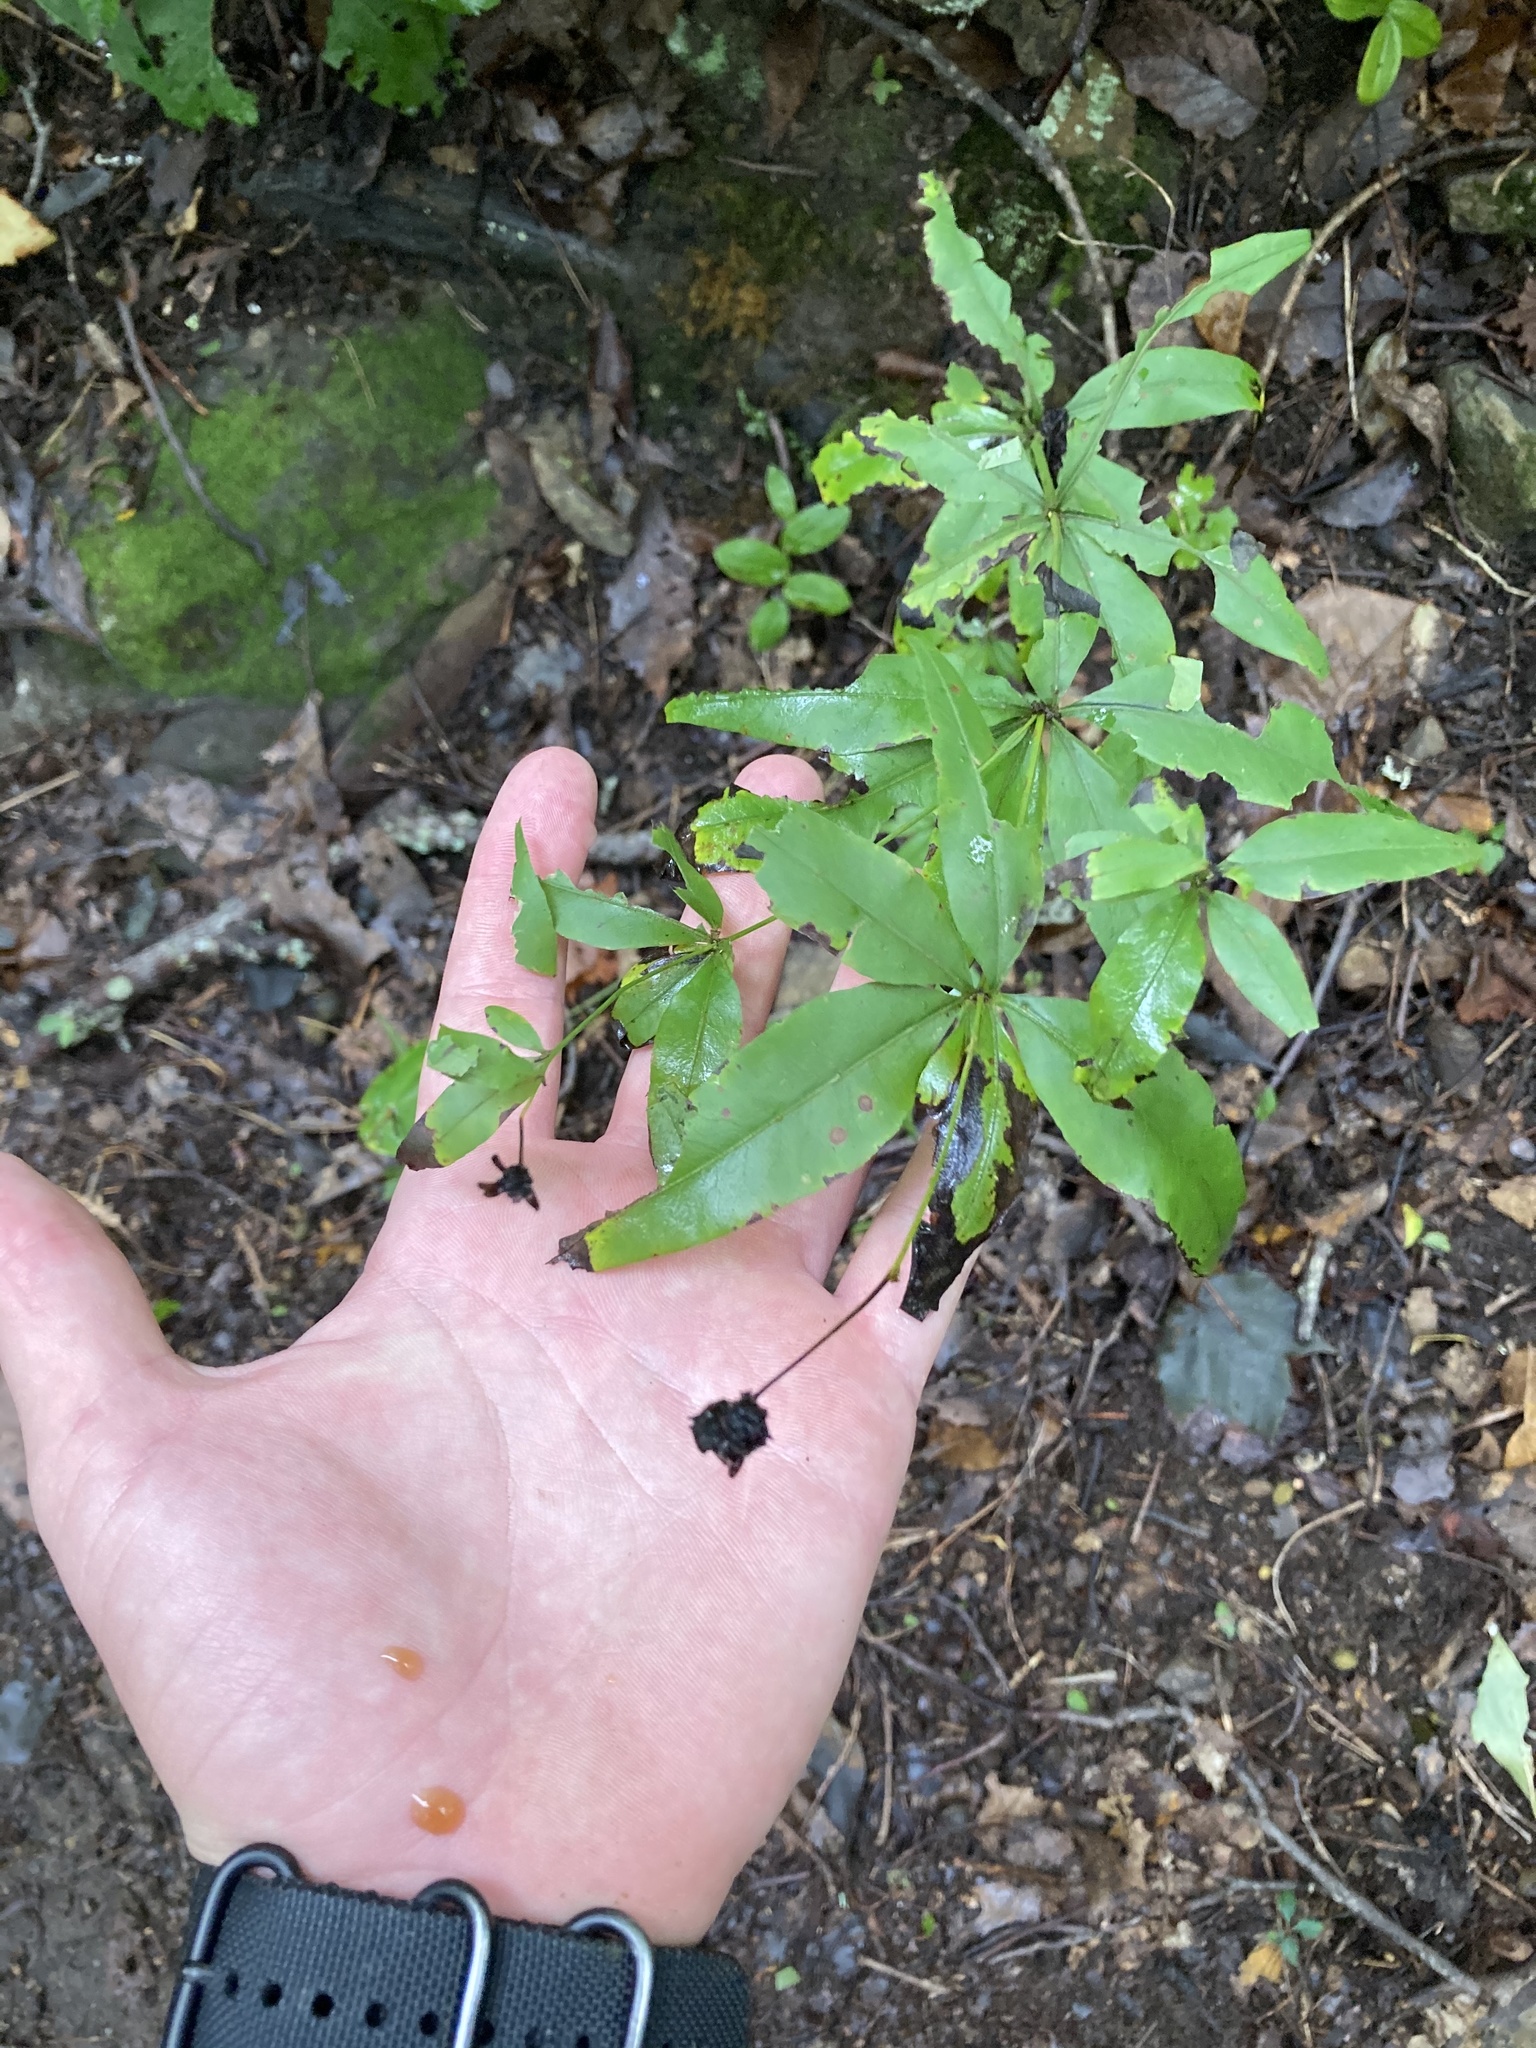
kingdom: Plantae
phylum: Tracheophyta
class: Magnoliopsida
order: Asterales
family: Asteraceae
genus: Coreopsis
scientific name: Coreopsis major
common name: Forest tickseed
